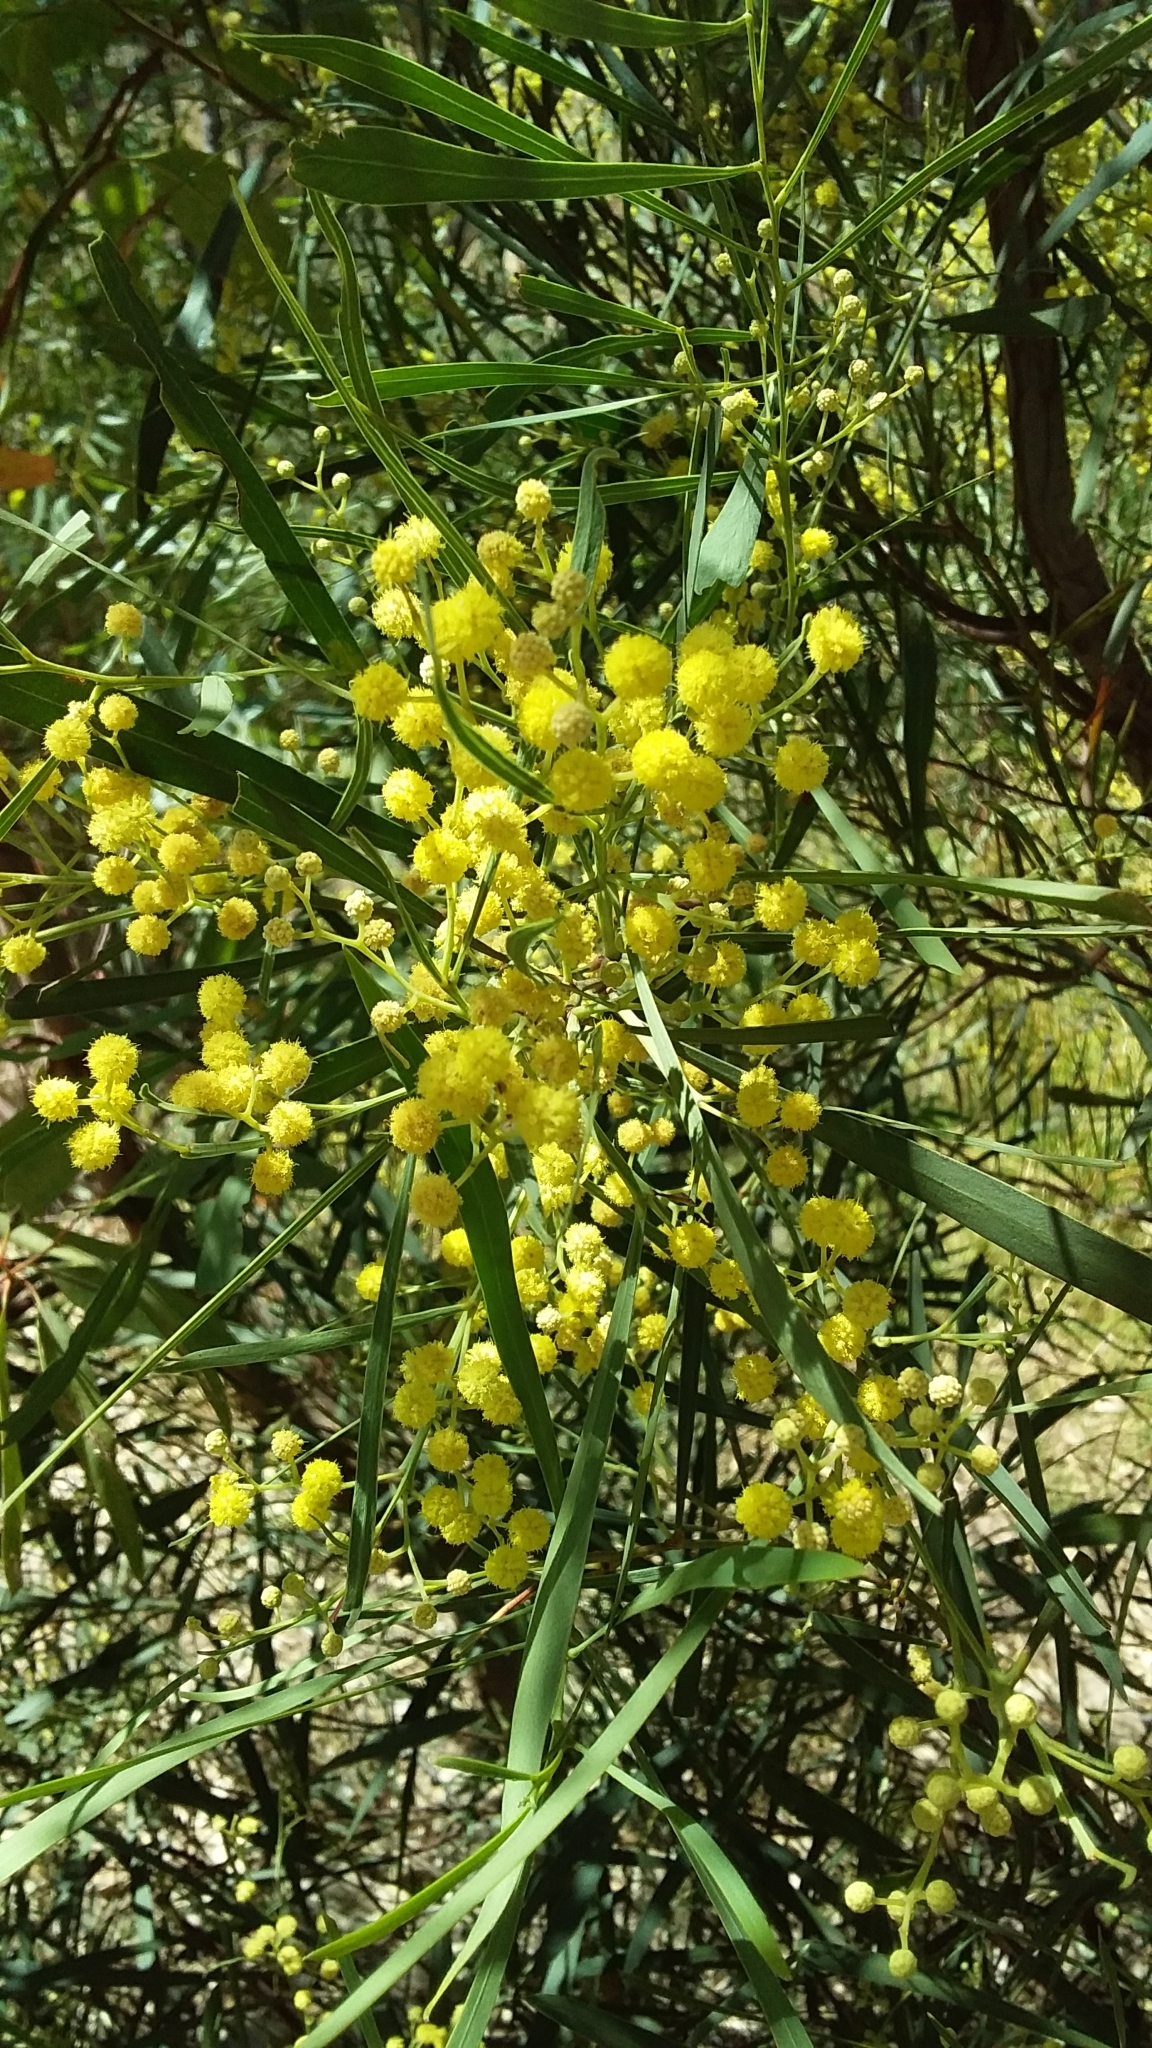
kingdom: Plantae
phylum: Tracheophyta
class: Magnoliopsida
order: Fabales
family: Fabaceae
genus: Acacia
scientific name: Acacia retinodes
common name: Silver wattle
